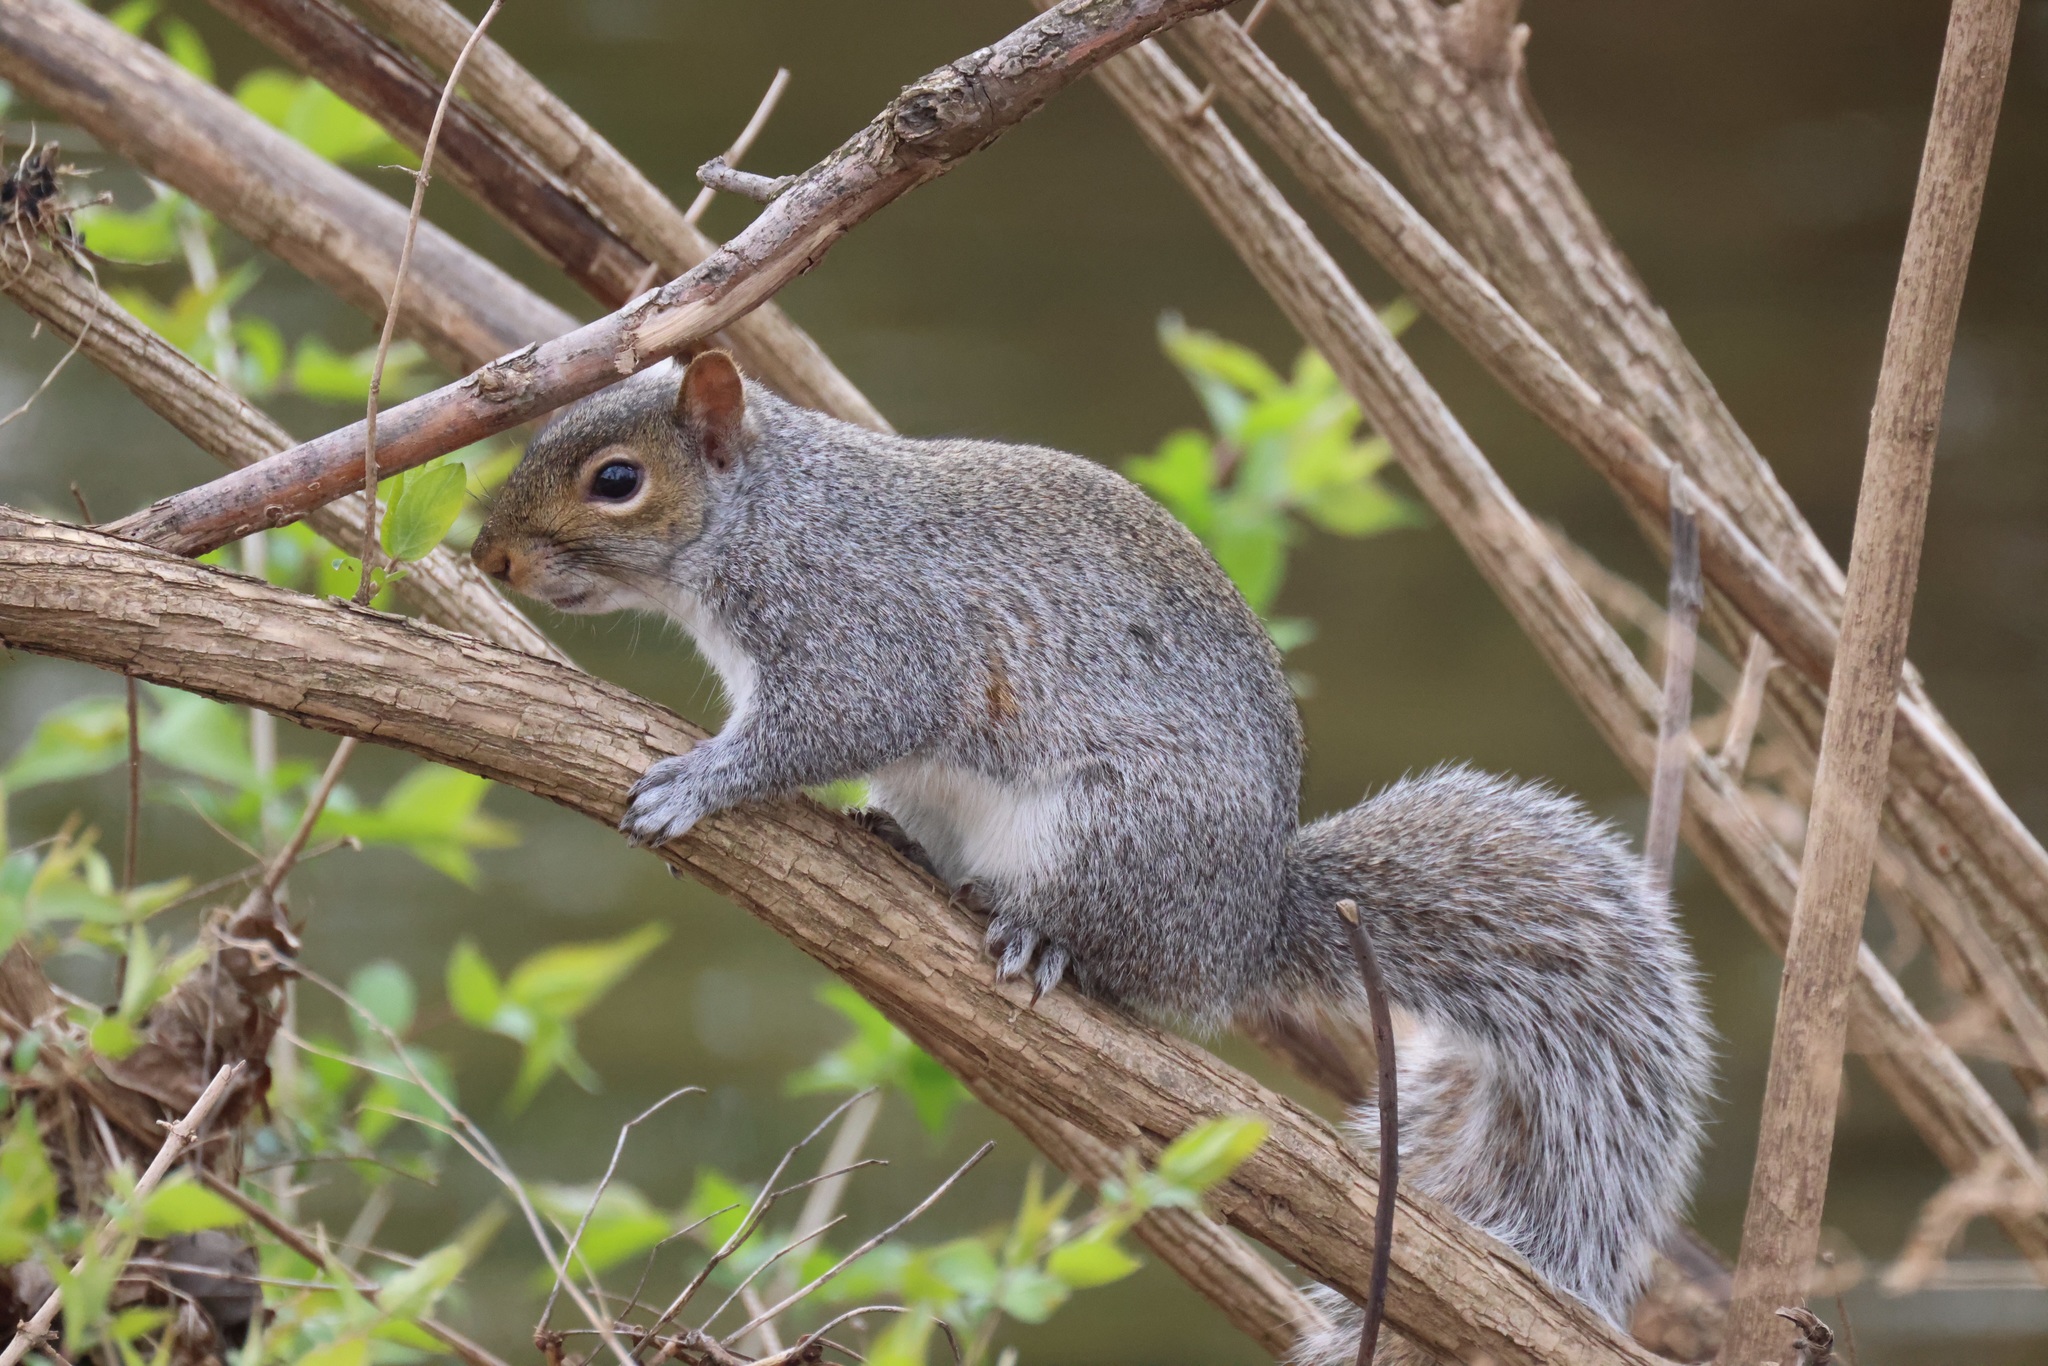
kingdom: Animalia
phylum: Chordata
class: Mammalia
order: Rodentia
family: Sciuridae
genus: Sciurus
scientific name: Sciurus carolinensis
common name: Eastern gray squirrel
